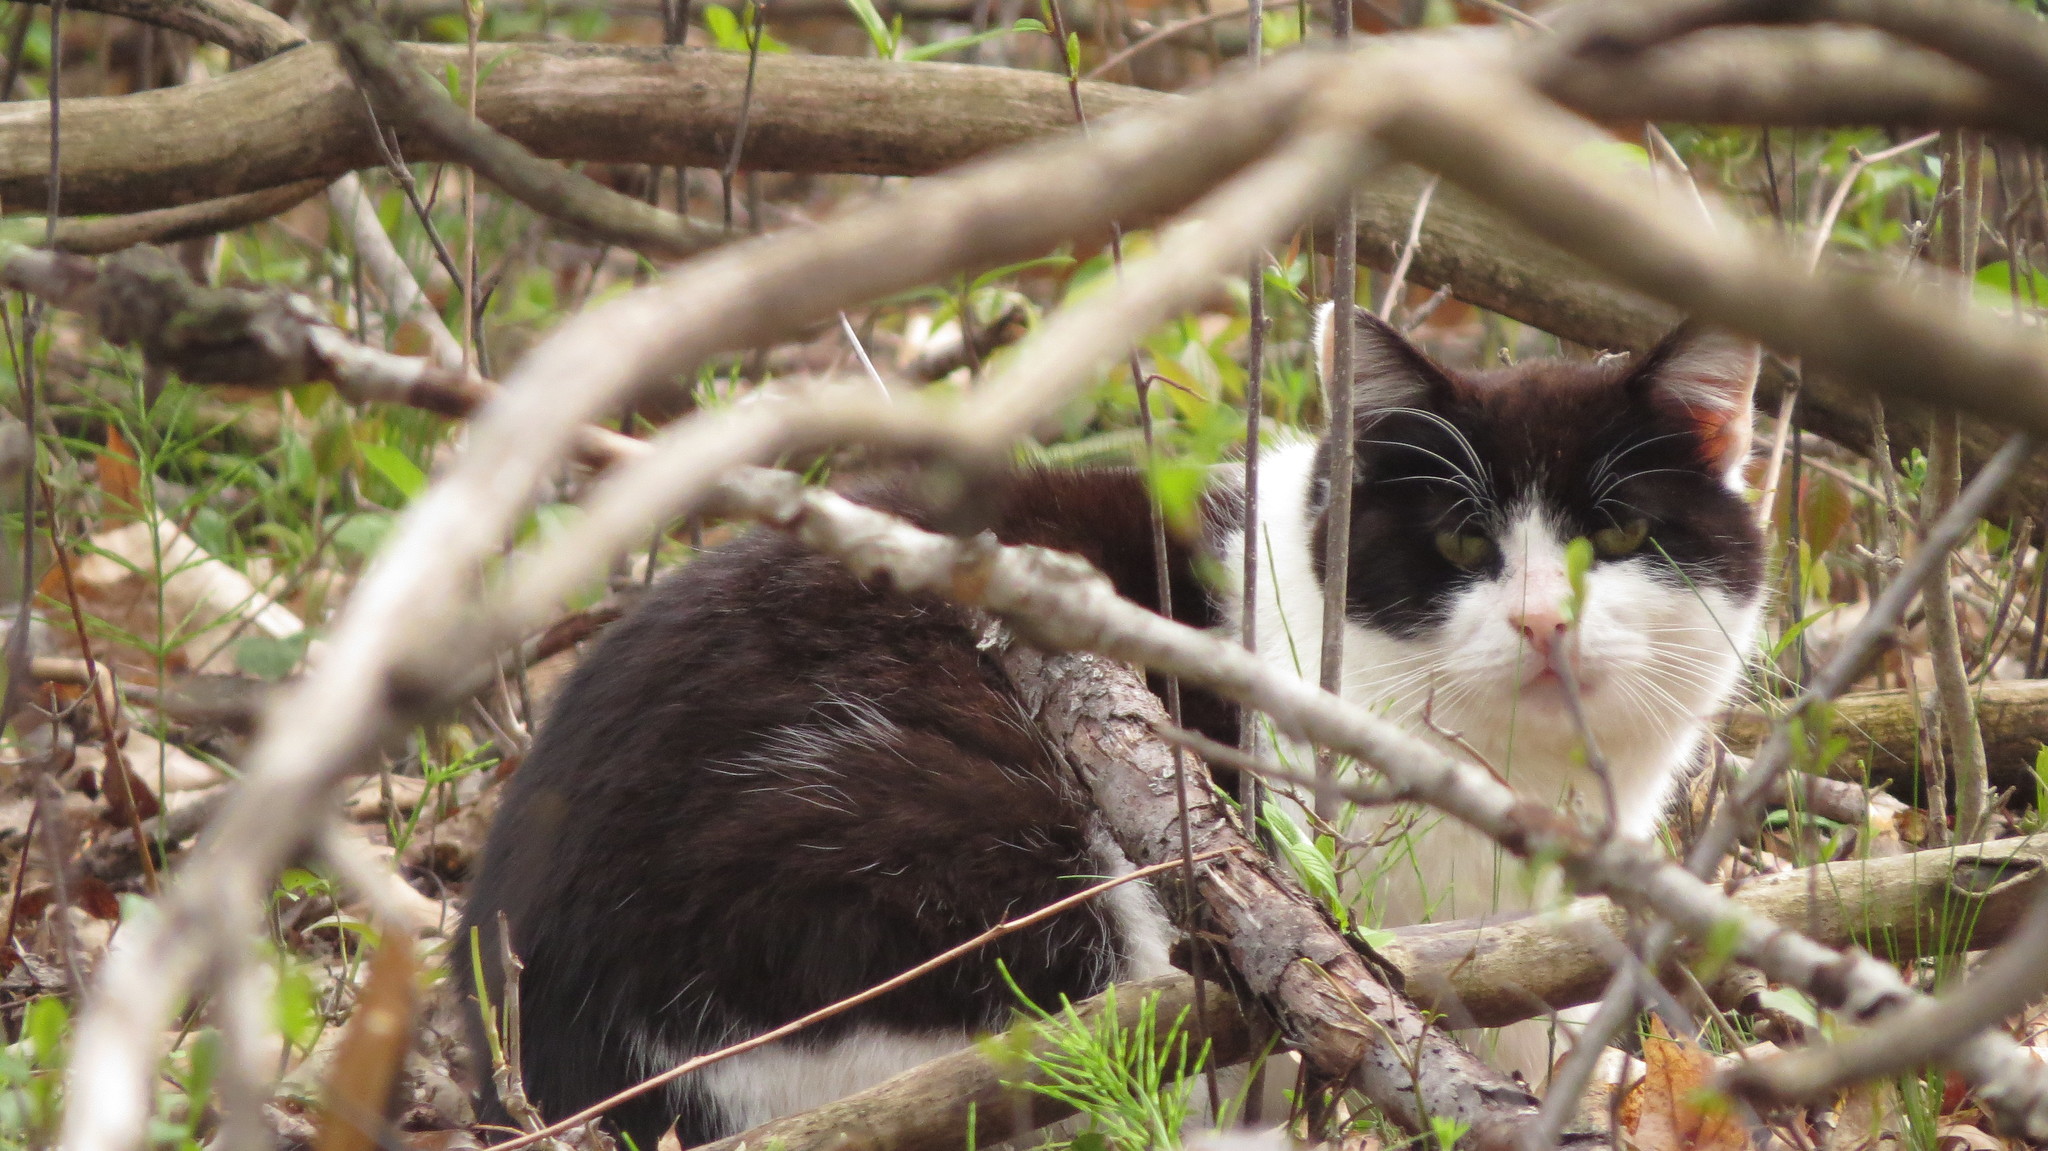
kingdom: Animalia
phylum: Chordata
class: Mammalia
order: Carnivora
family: Felidae
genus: Felis
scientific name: Felis catus
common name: Domestic cat
